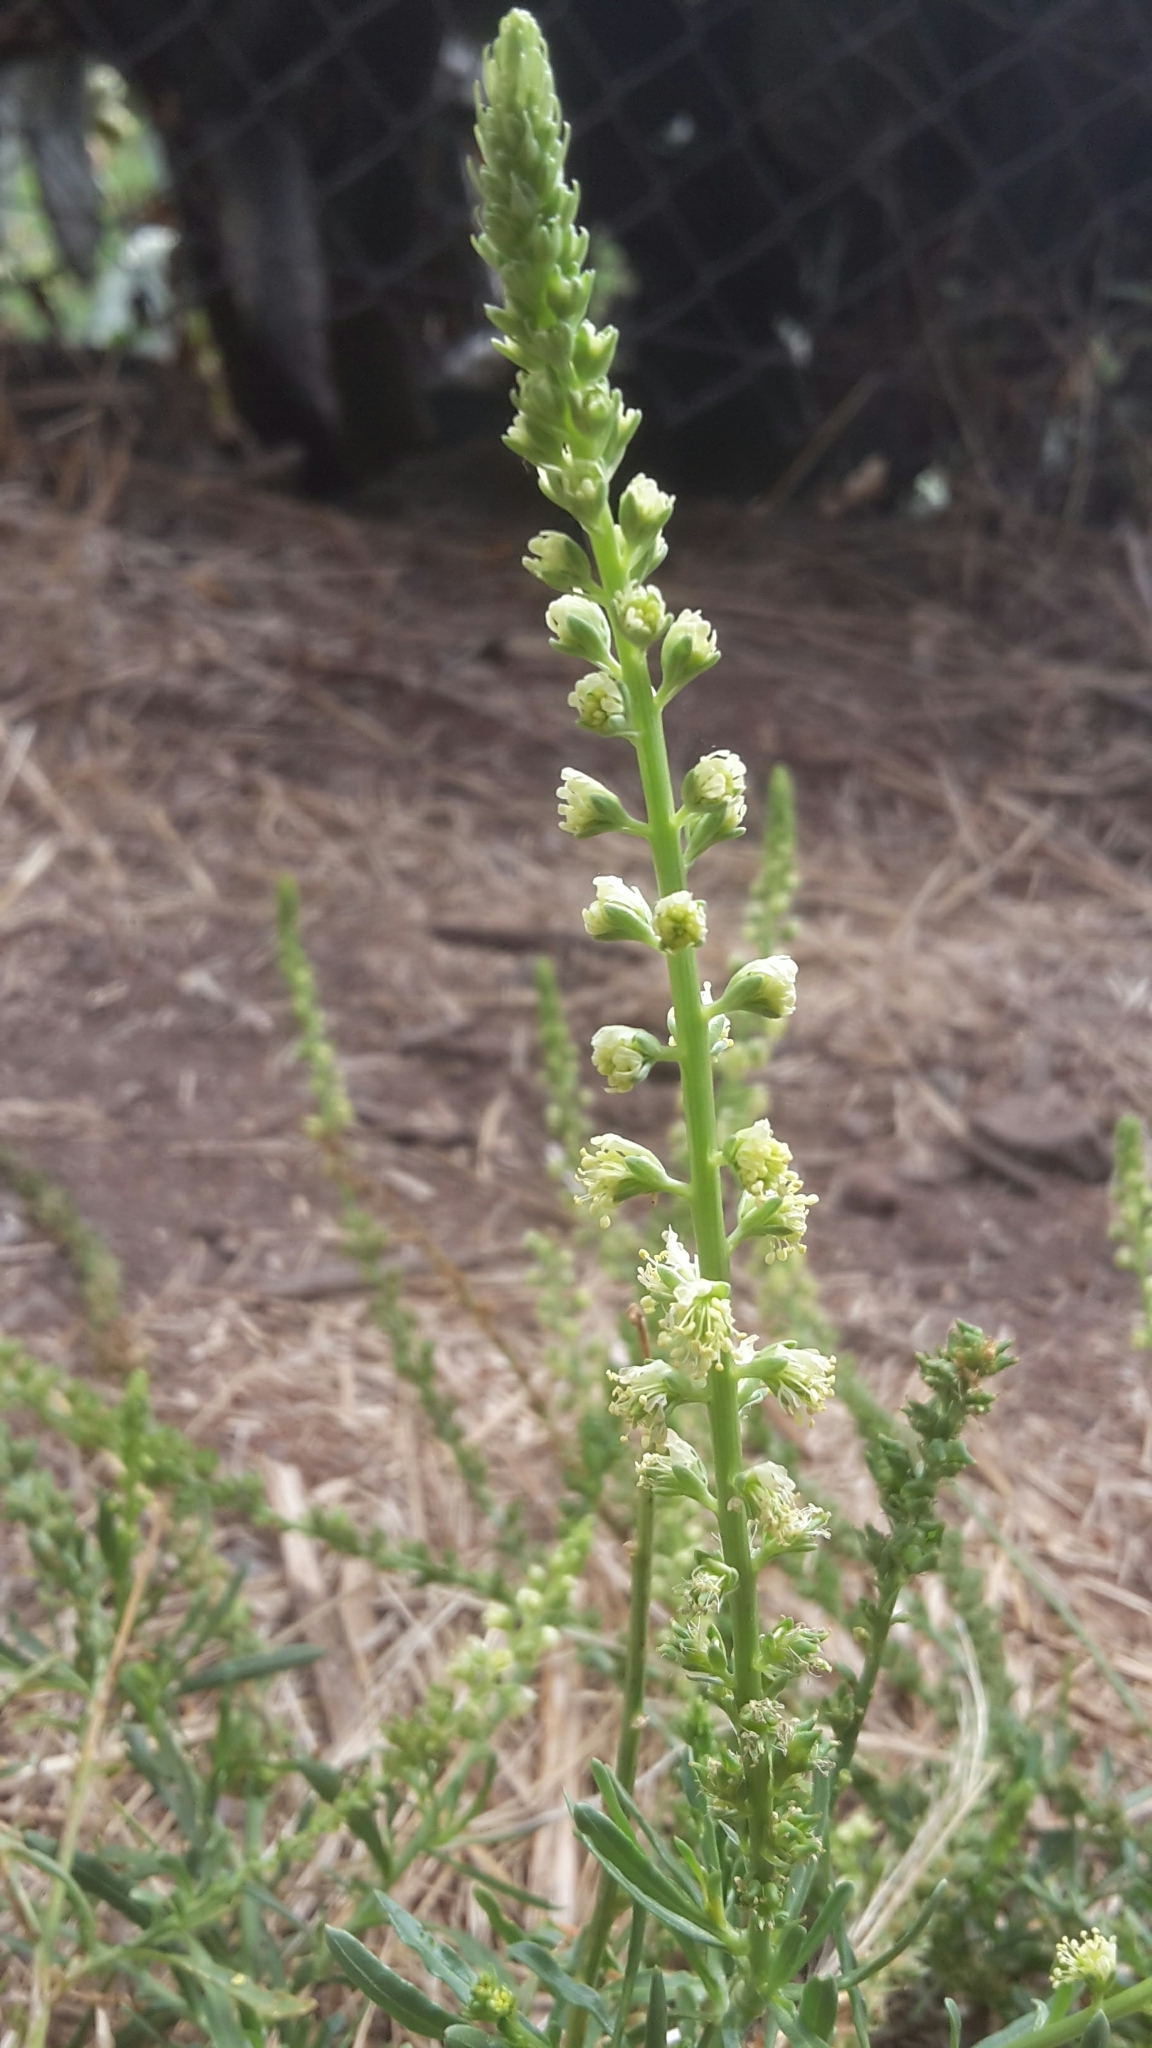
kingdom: Plantae
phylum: Tracheophyta
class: Magnoliopsida
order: Brassicales
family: Resedaceae
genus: Reseda
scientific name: Reseda luteola
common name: Weld
